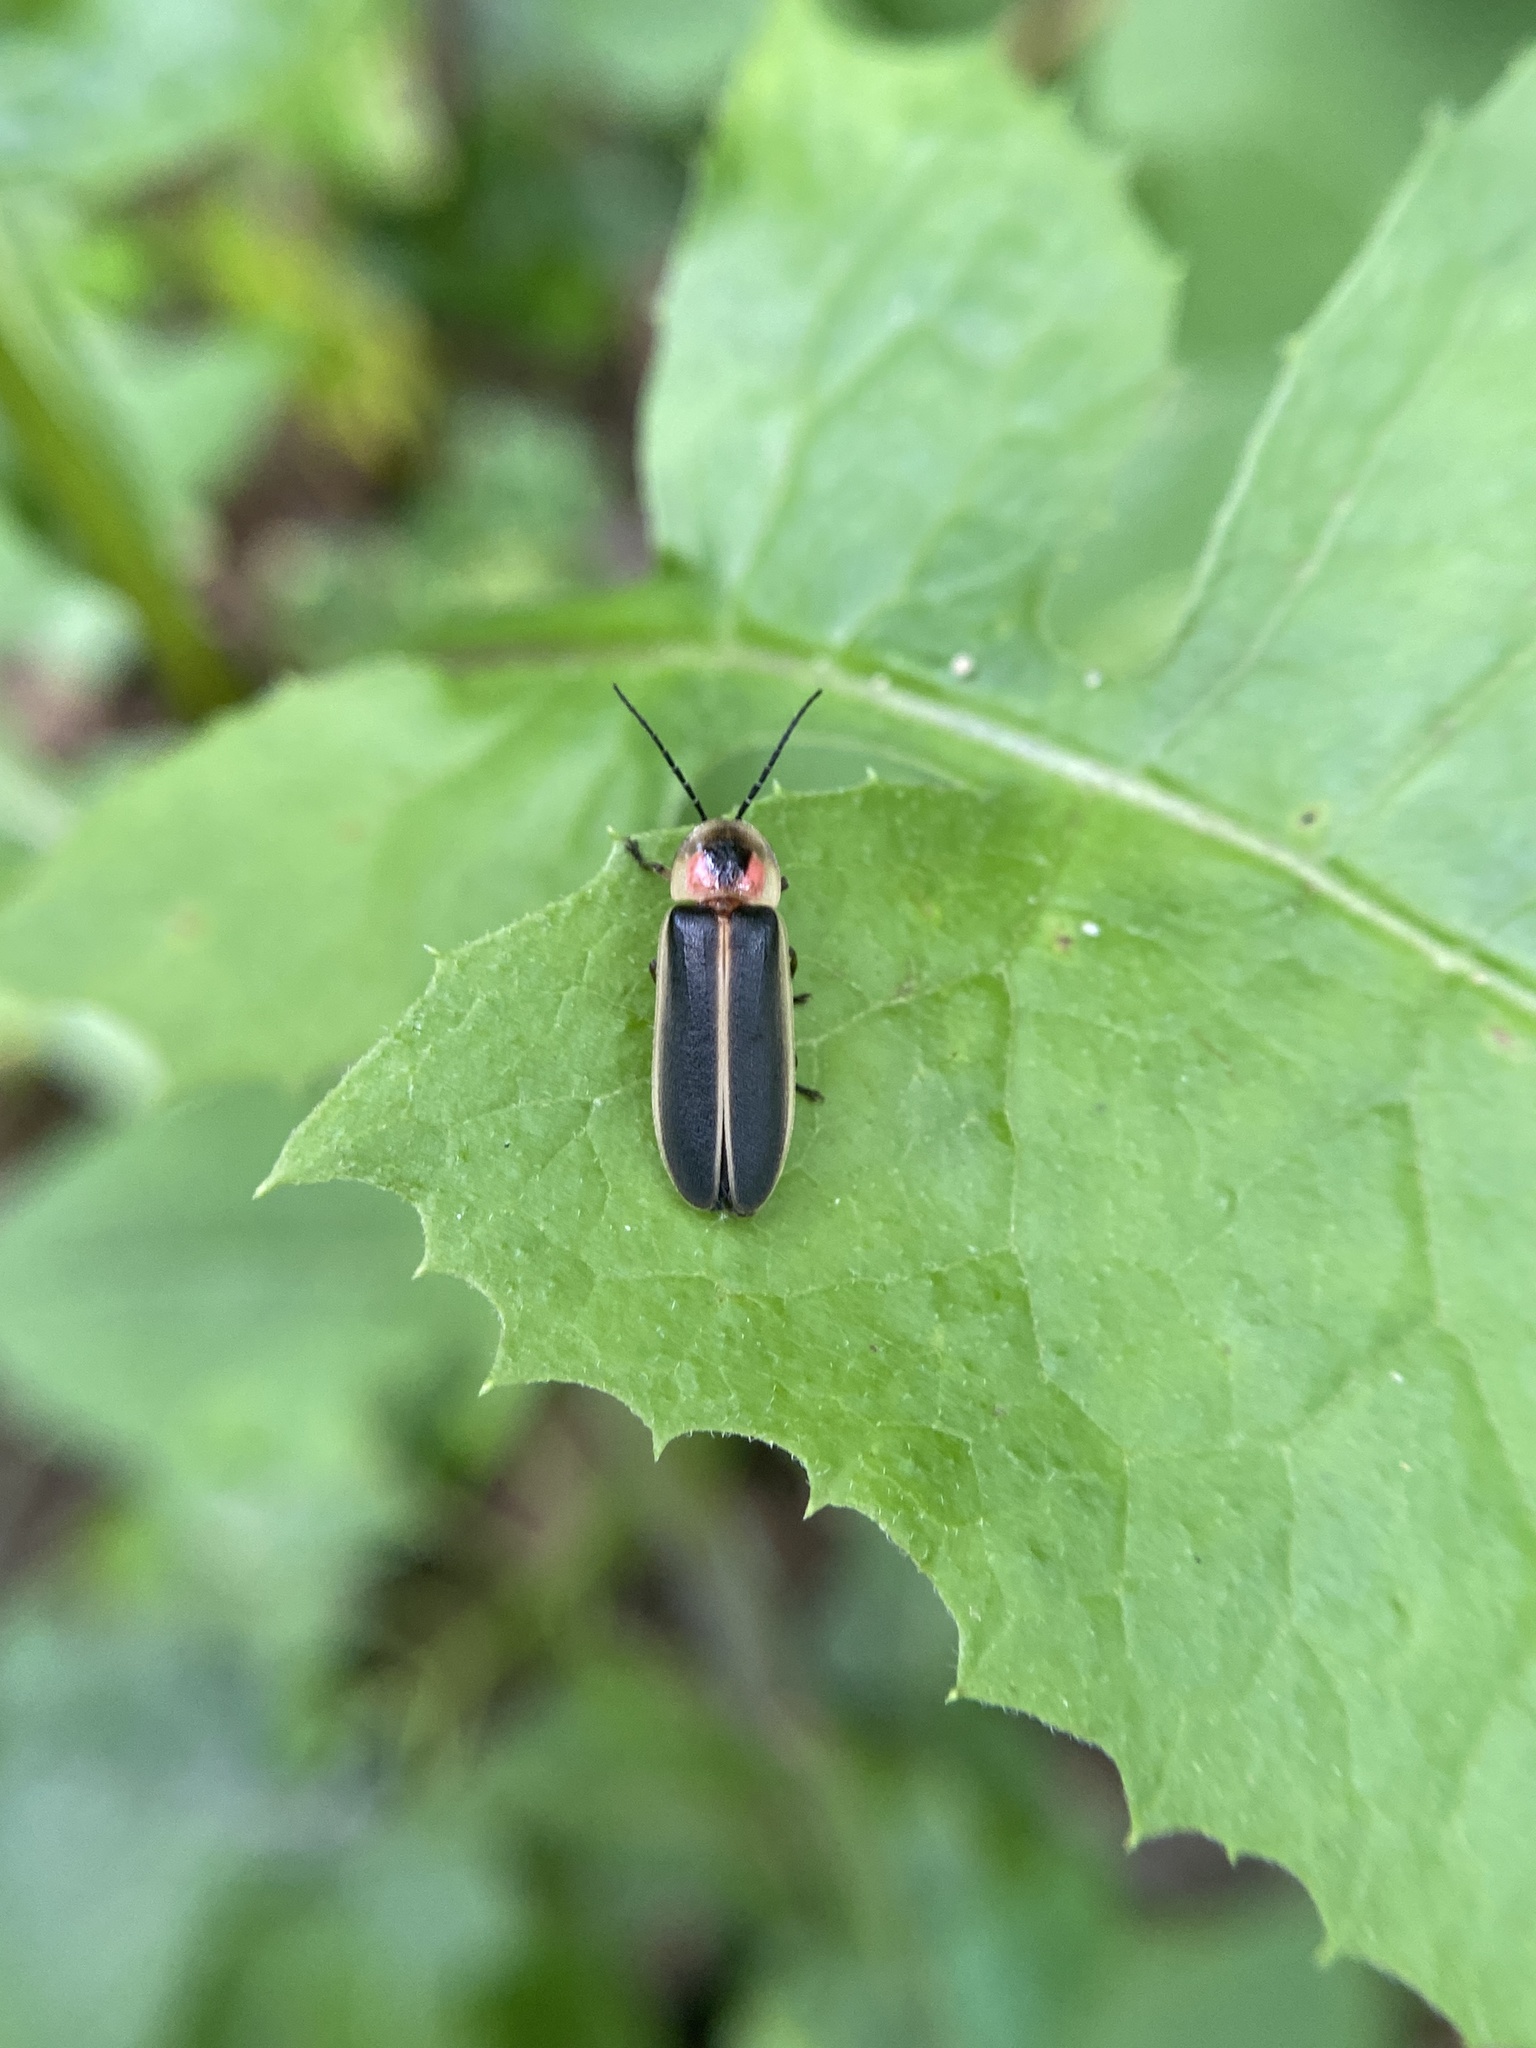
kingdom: Animalia
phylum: Arthropoda
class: Insecta
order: Coleoptera
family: Lampyridae
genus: Photinus
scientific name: Photinus pyralis
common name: Big dipper firefly
